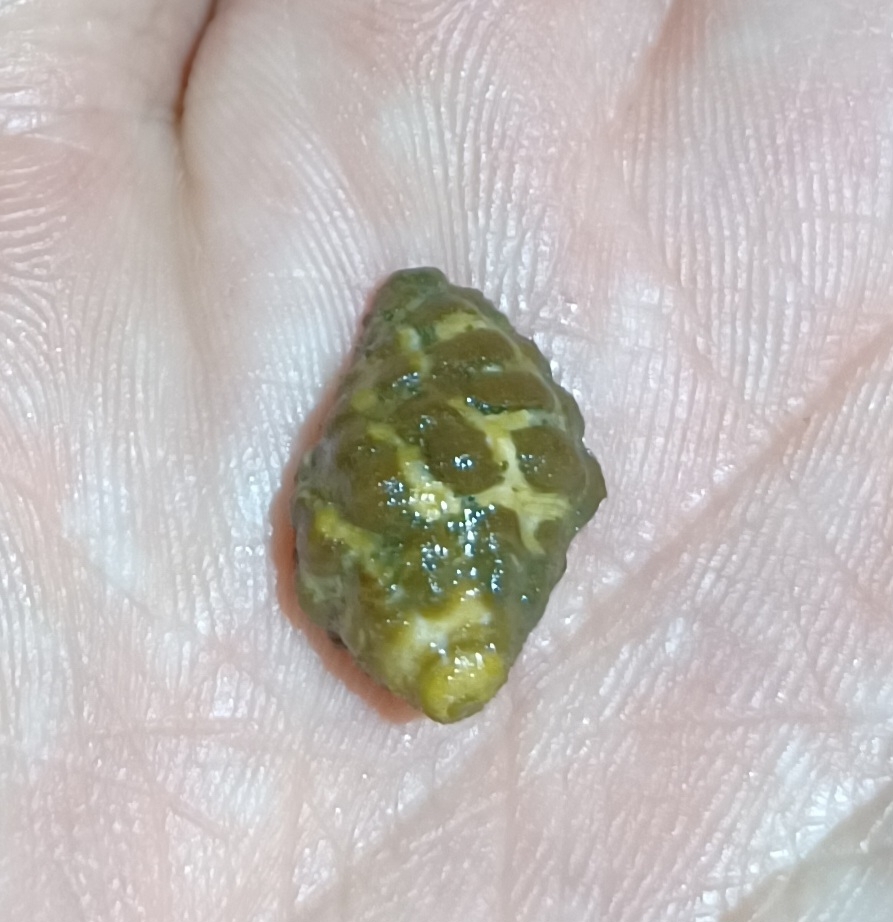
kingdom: Animalia
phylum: Mollusca
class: Gastropoda
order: Neogastropoda
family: Muricidae
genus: Tenguella
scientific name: Tenguella marginalba
